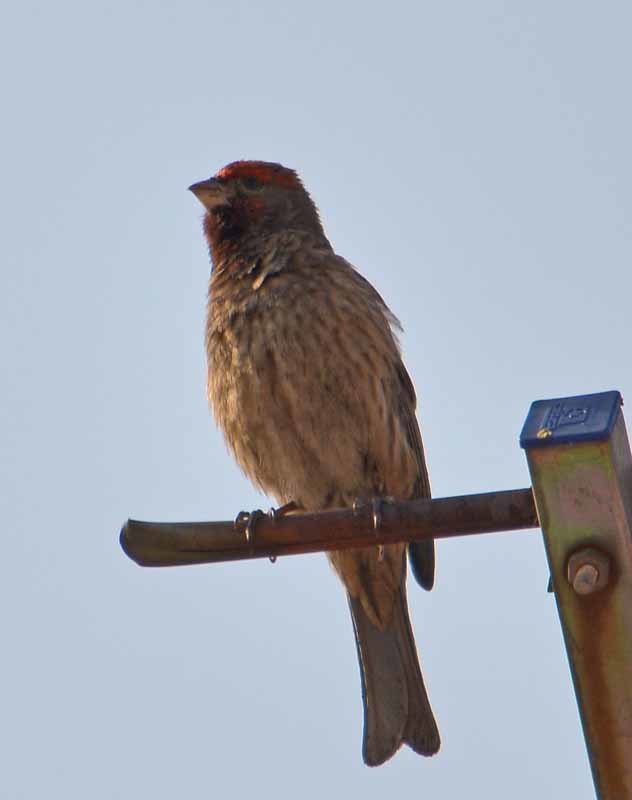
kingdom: Animalia
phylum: Chordata
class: Aves
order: Passeriformes
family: Fringillidae
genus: Haemorhous
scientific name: Haemorhous mexicanus
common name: House finch
